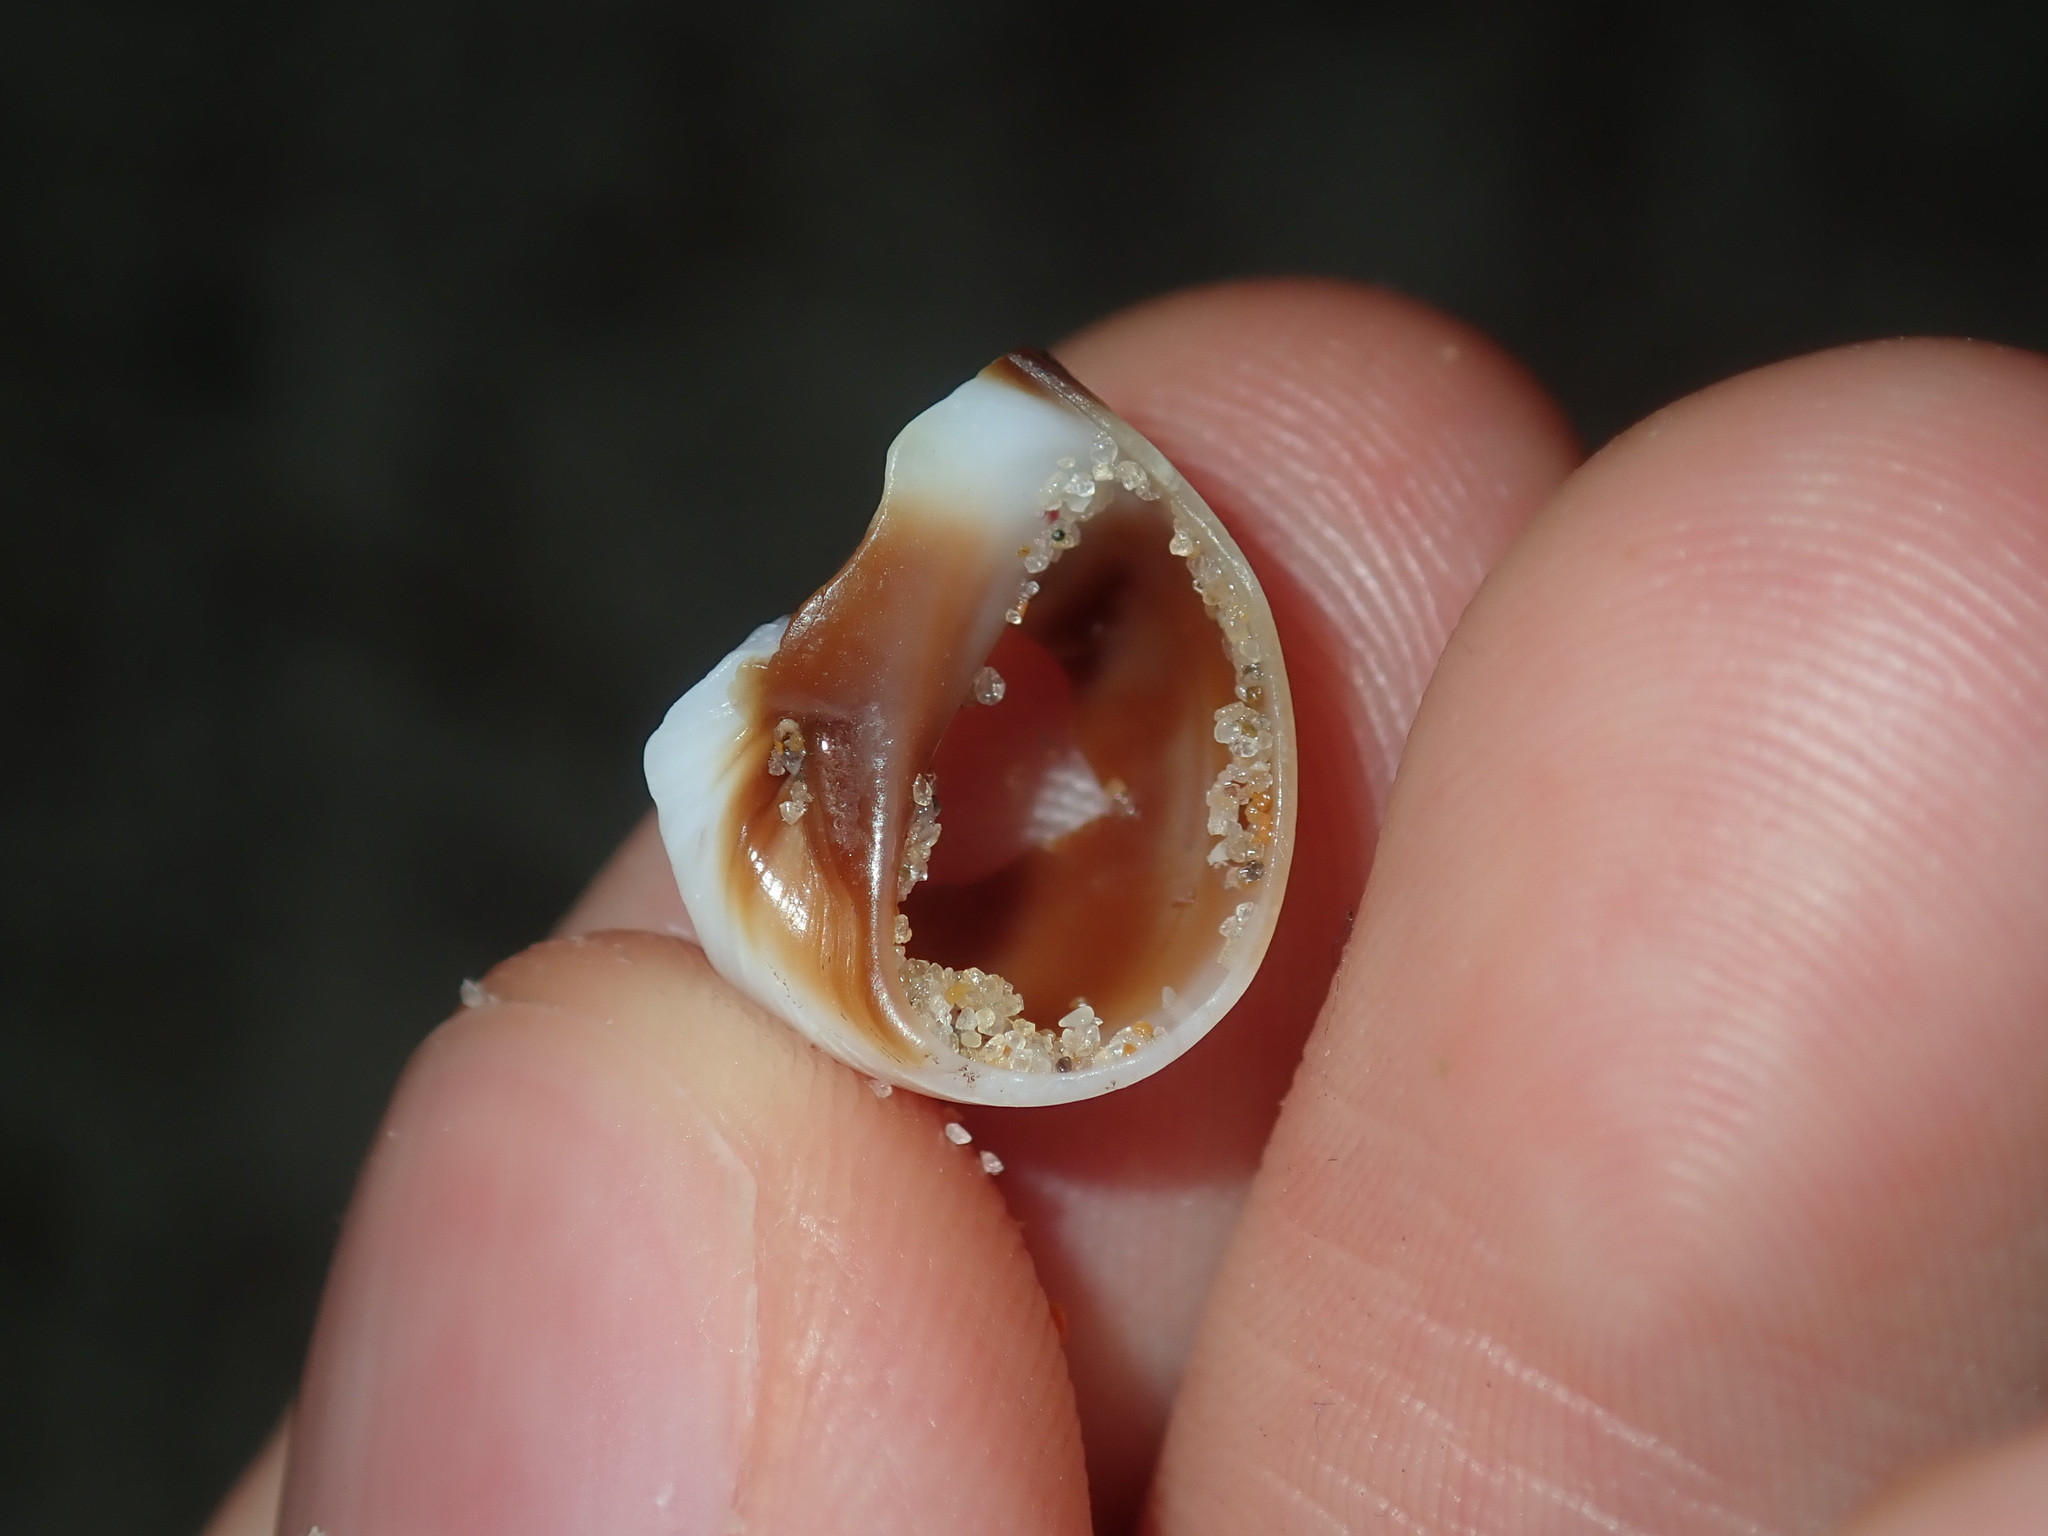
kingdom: Animalia
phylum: Mollusca
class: Gastropoda
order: Littorinimorpha
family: Naticidae
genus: Conuber
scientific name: Conuber conicum
